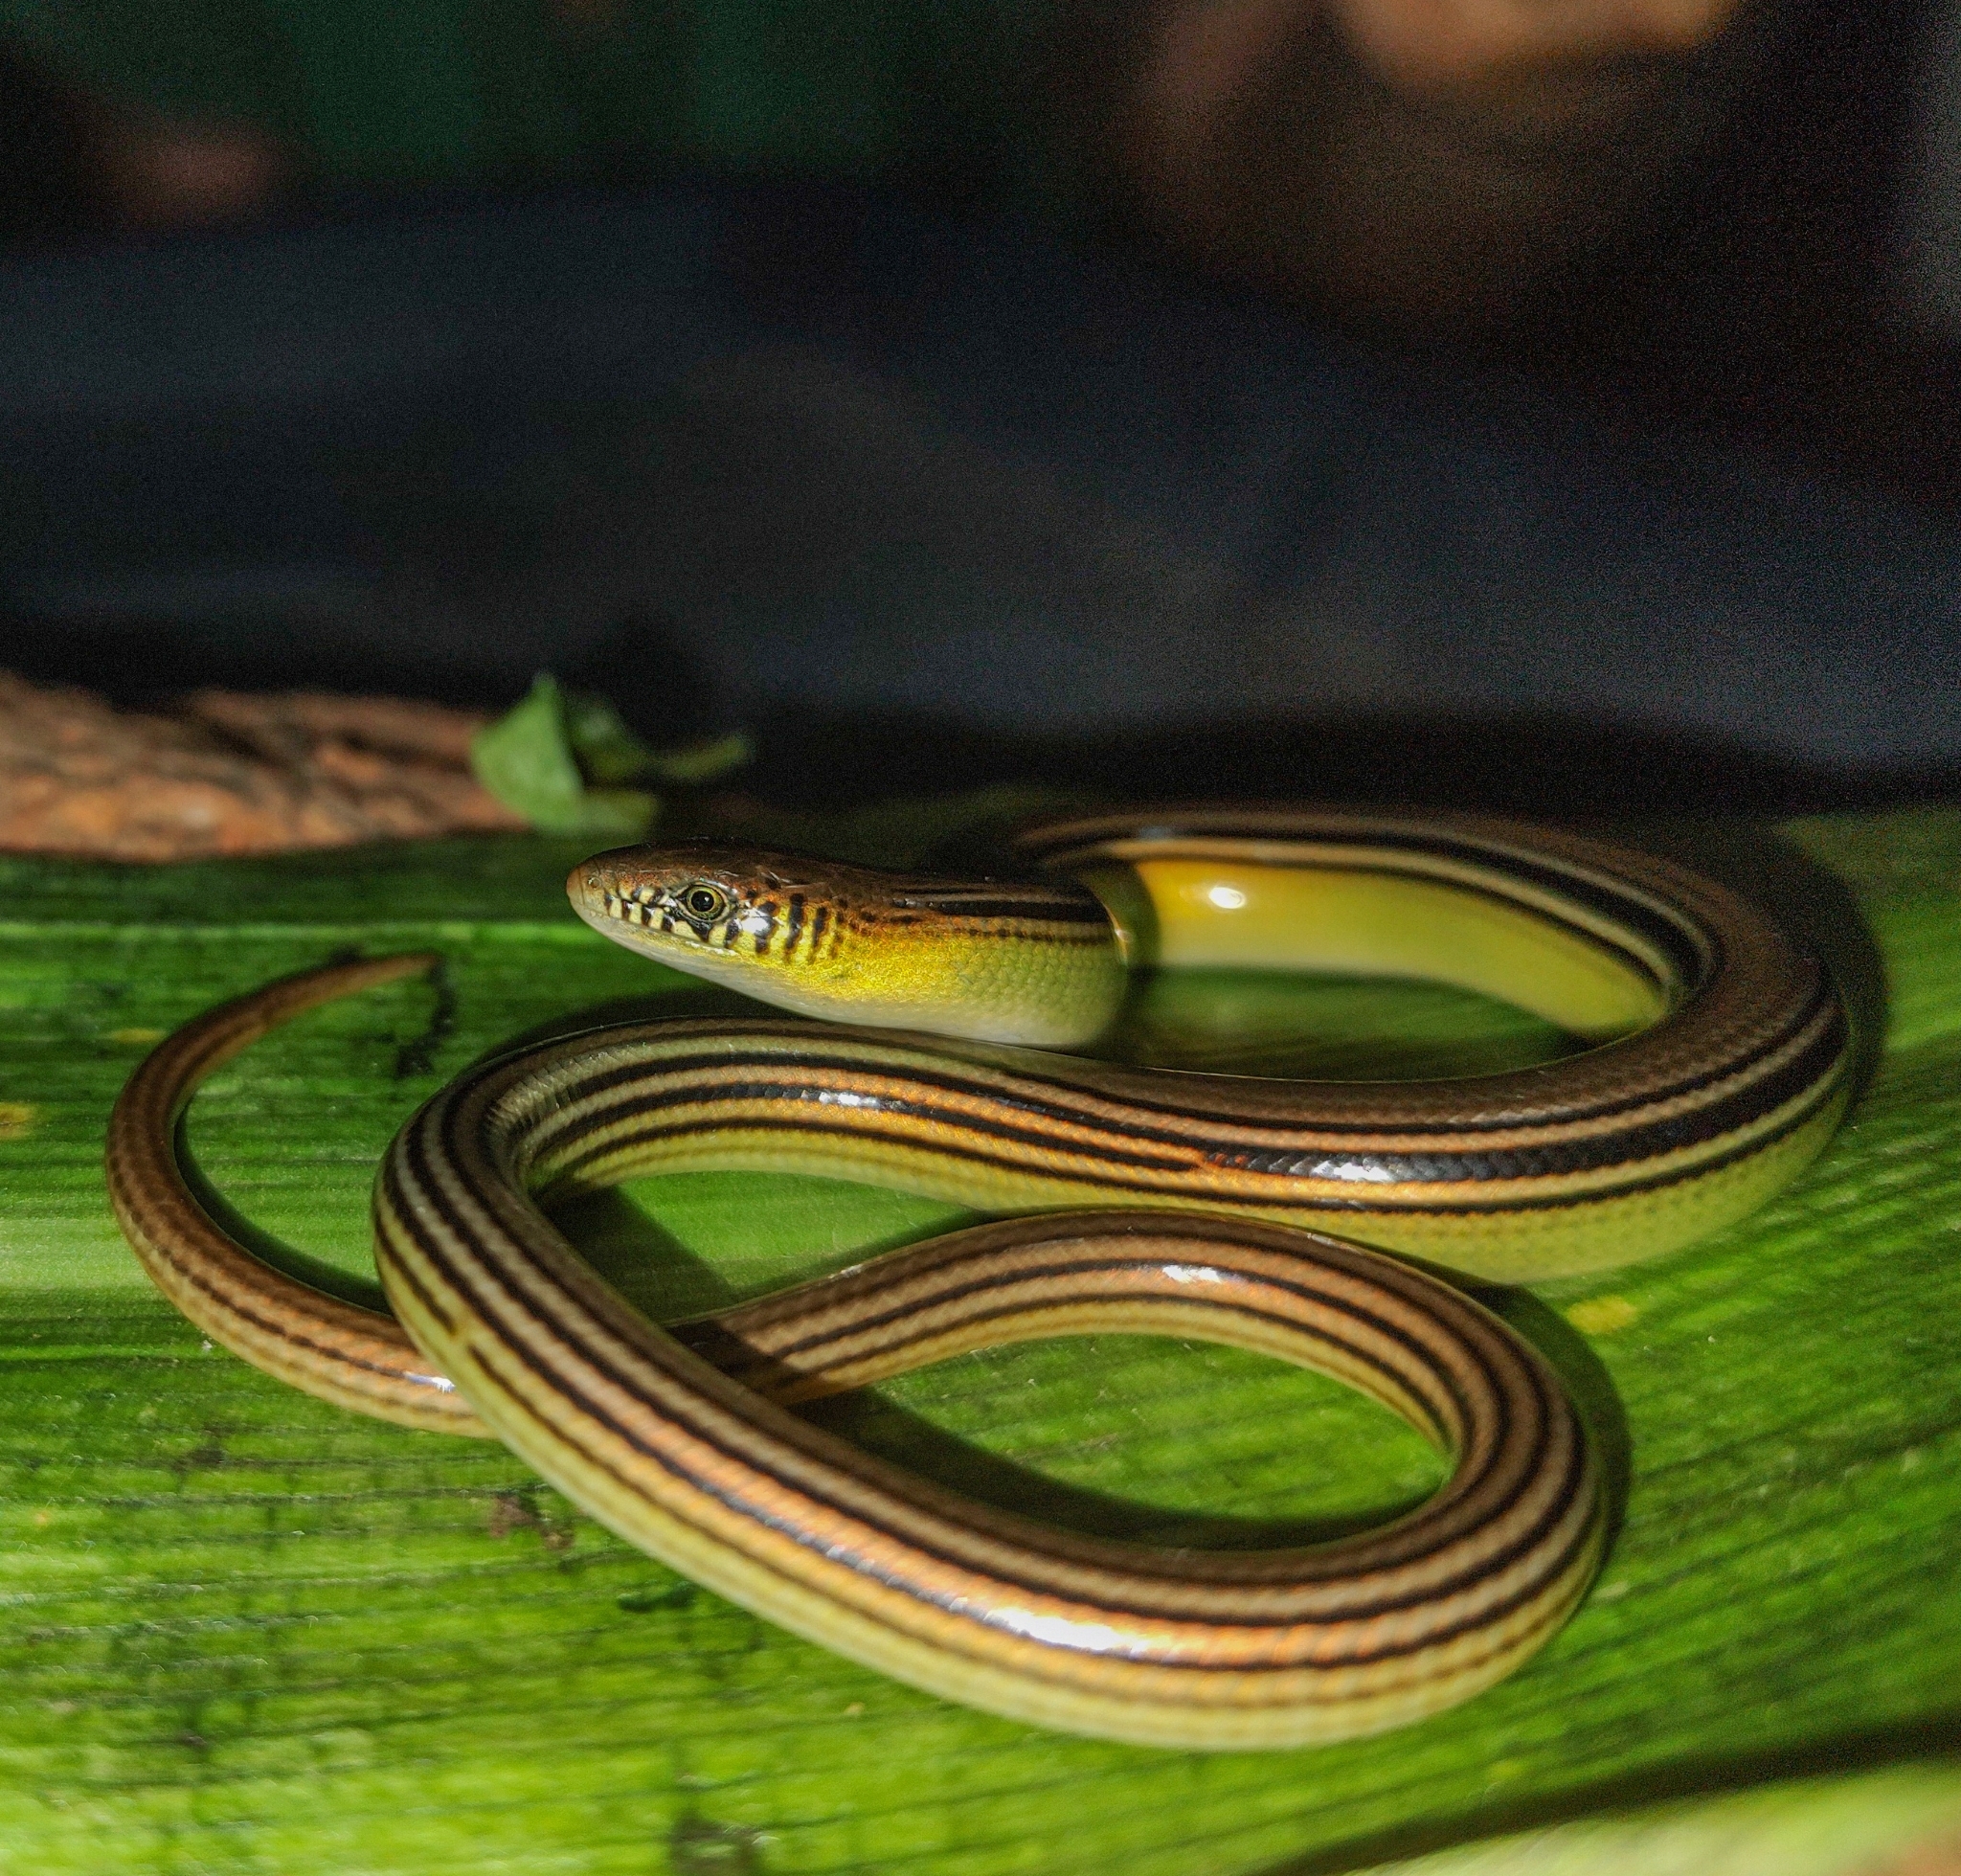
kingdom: Animalia
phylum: Chordata
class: Squamata
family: Diploglossidae
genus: Ophiodes
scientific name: Ophiodes striatus
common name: Striped worm lizard
